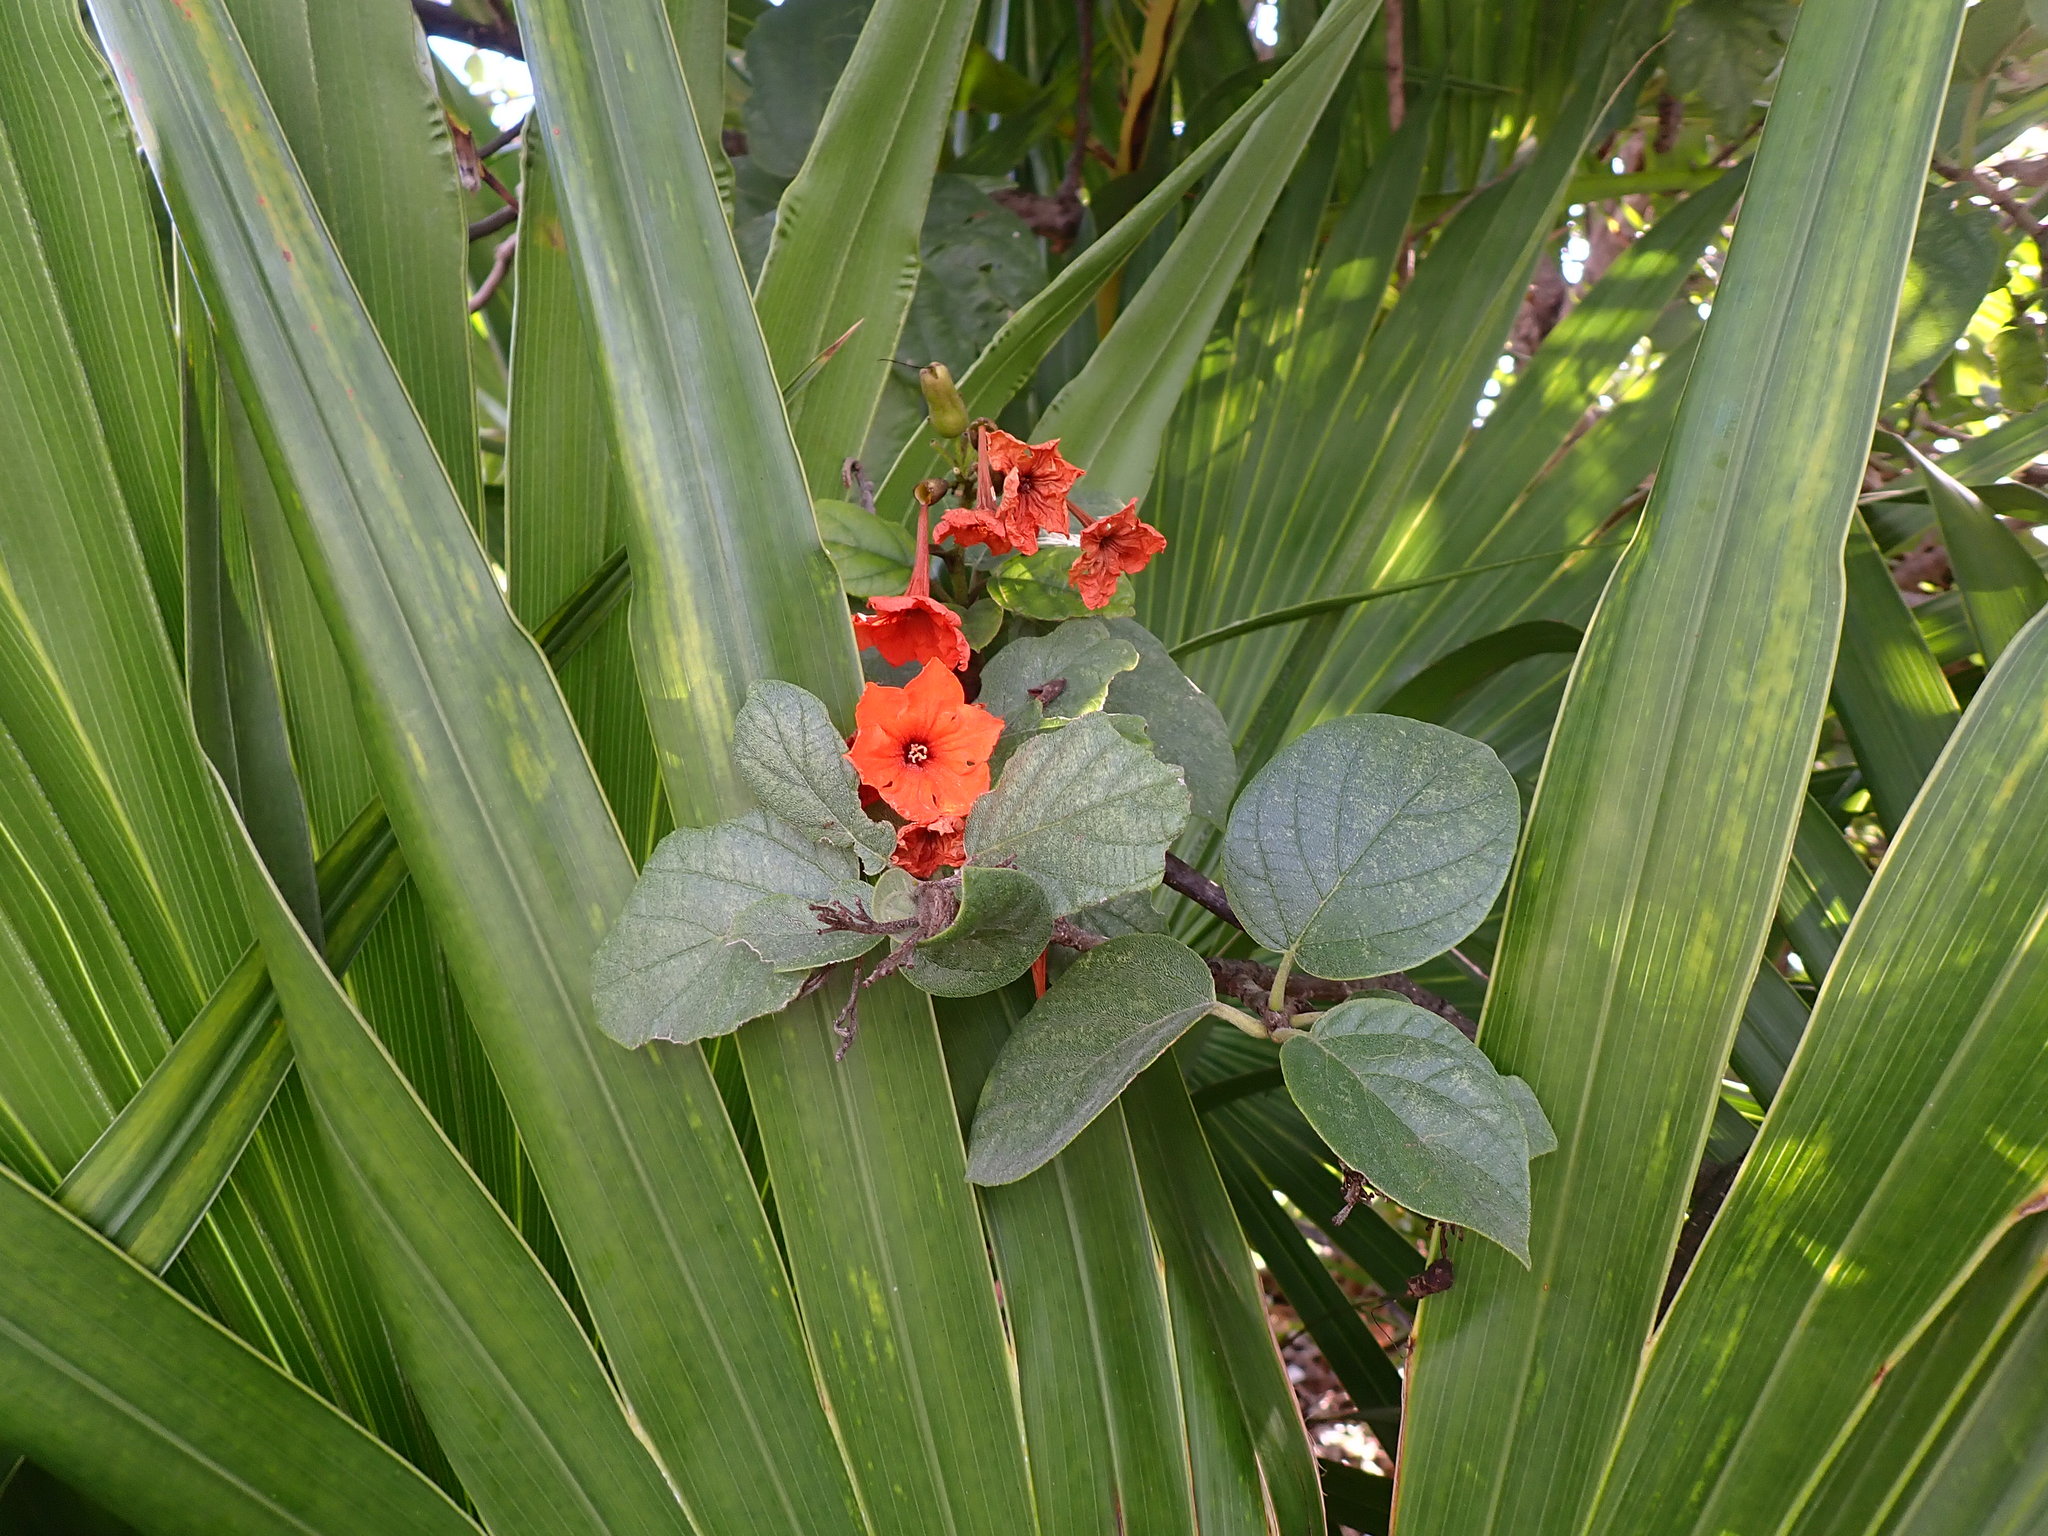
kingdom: Plantae
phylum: Tracheophyta
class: Magnoliopsida
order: Boraginales
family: Cordiaceae
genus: Cordia
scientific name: Cordia sebestena
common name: Largeleaf geigertree
